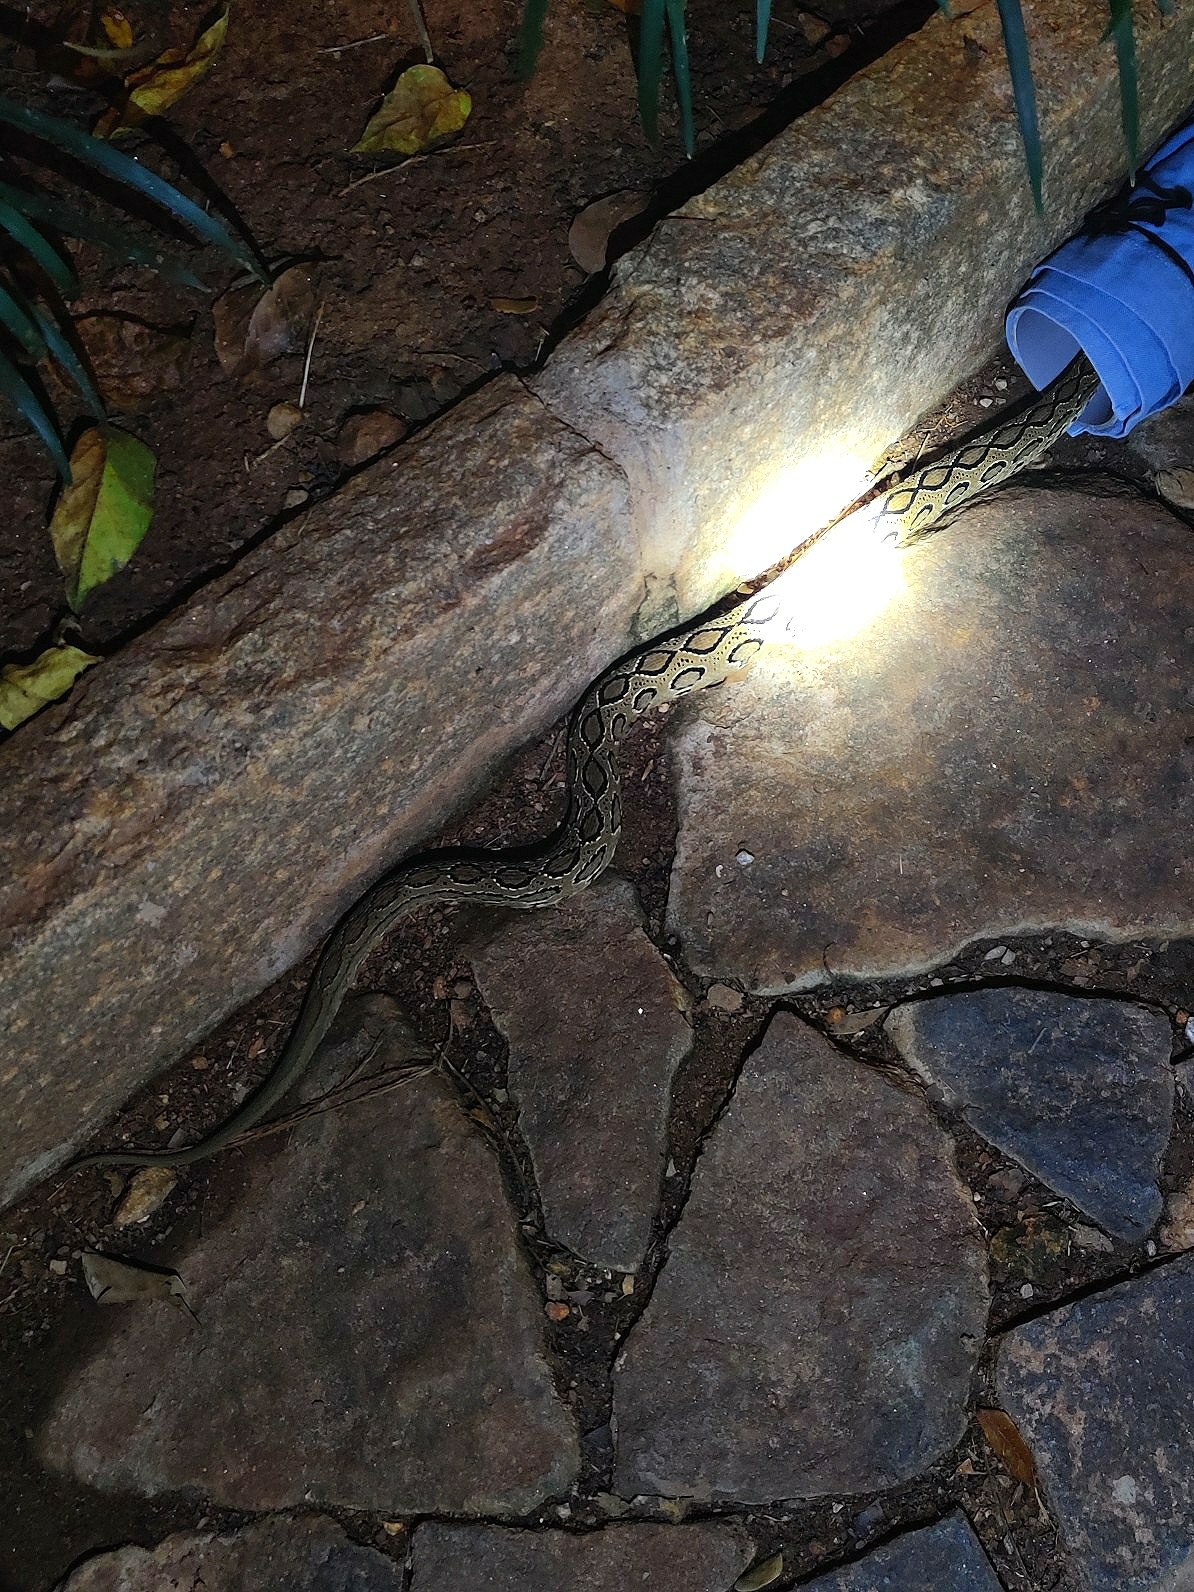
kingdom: Animalia
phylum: Chordata
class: Squamata
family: Viperidae
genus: Daboia
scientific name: Daboia russelii
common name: Western russel’s viper
